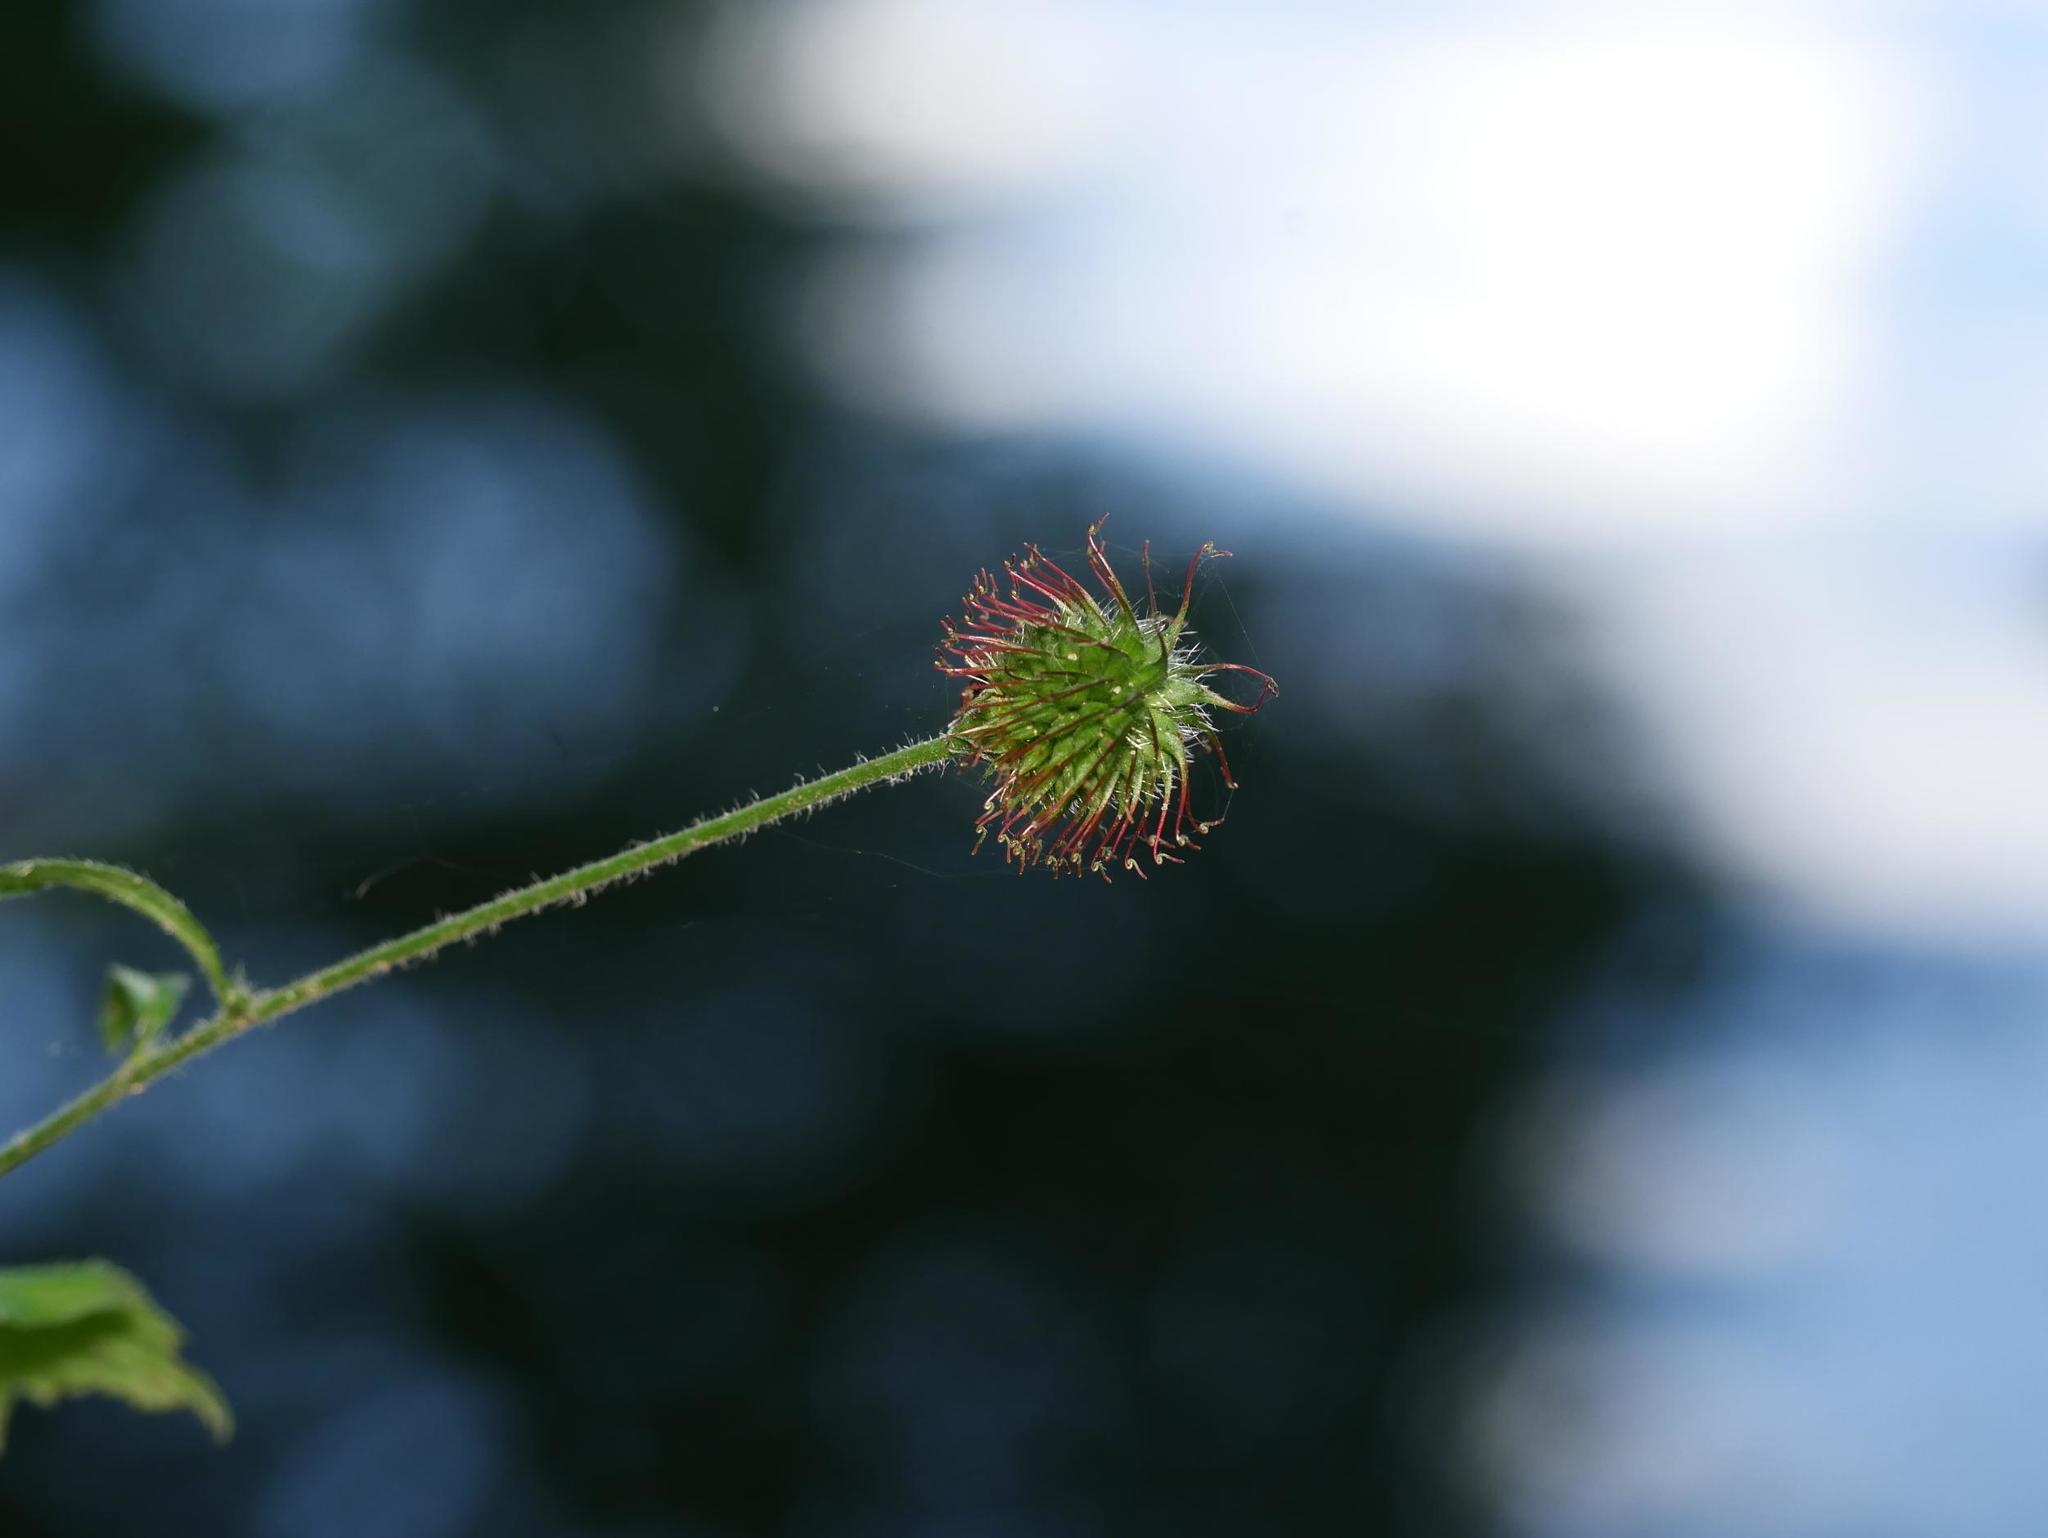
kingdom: Plantae
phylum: Tracheophyta
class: Magnoliopsida
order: Rosales
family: Rosaceae
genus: Geum
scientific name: Geum urbanum
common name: Wood avens
